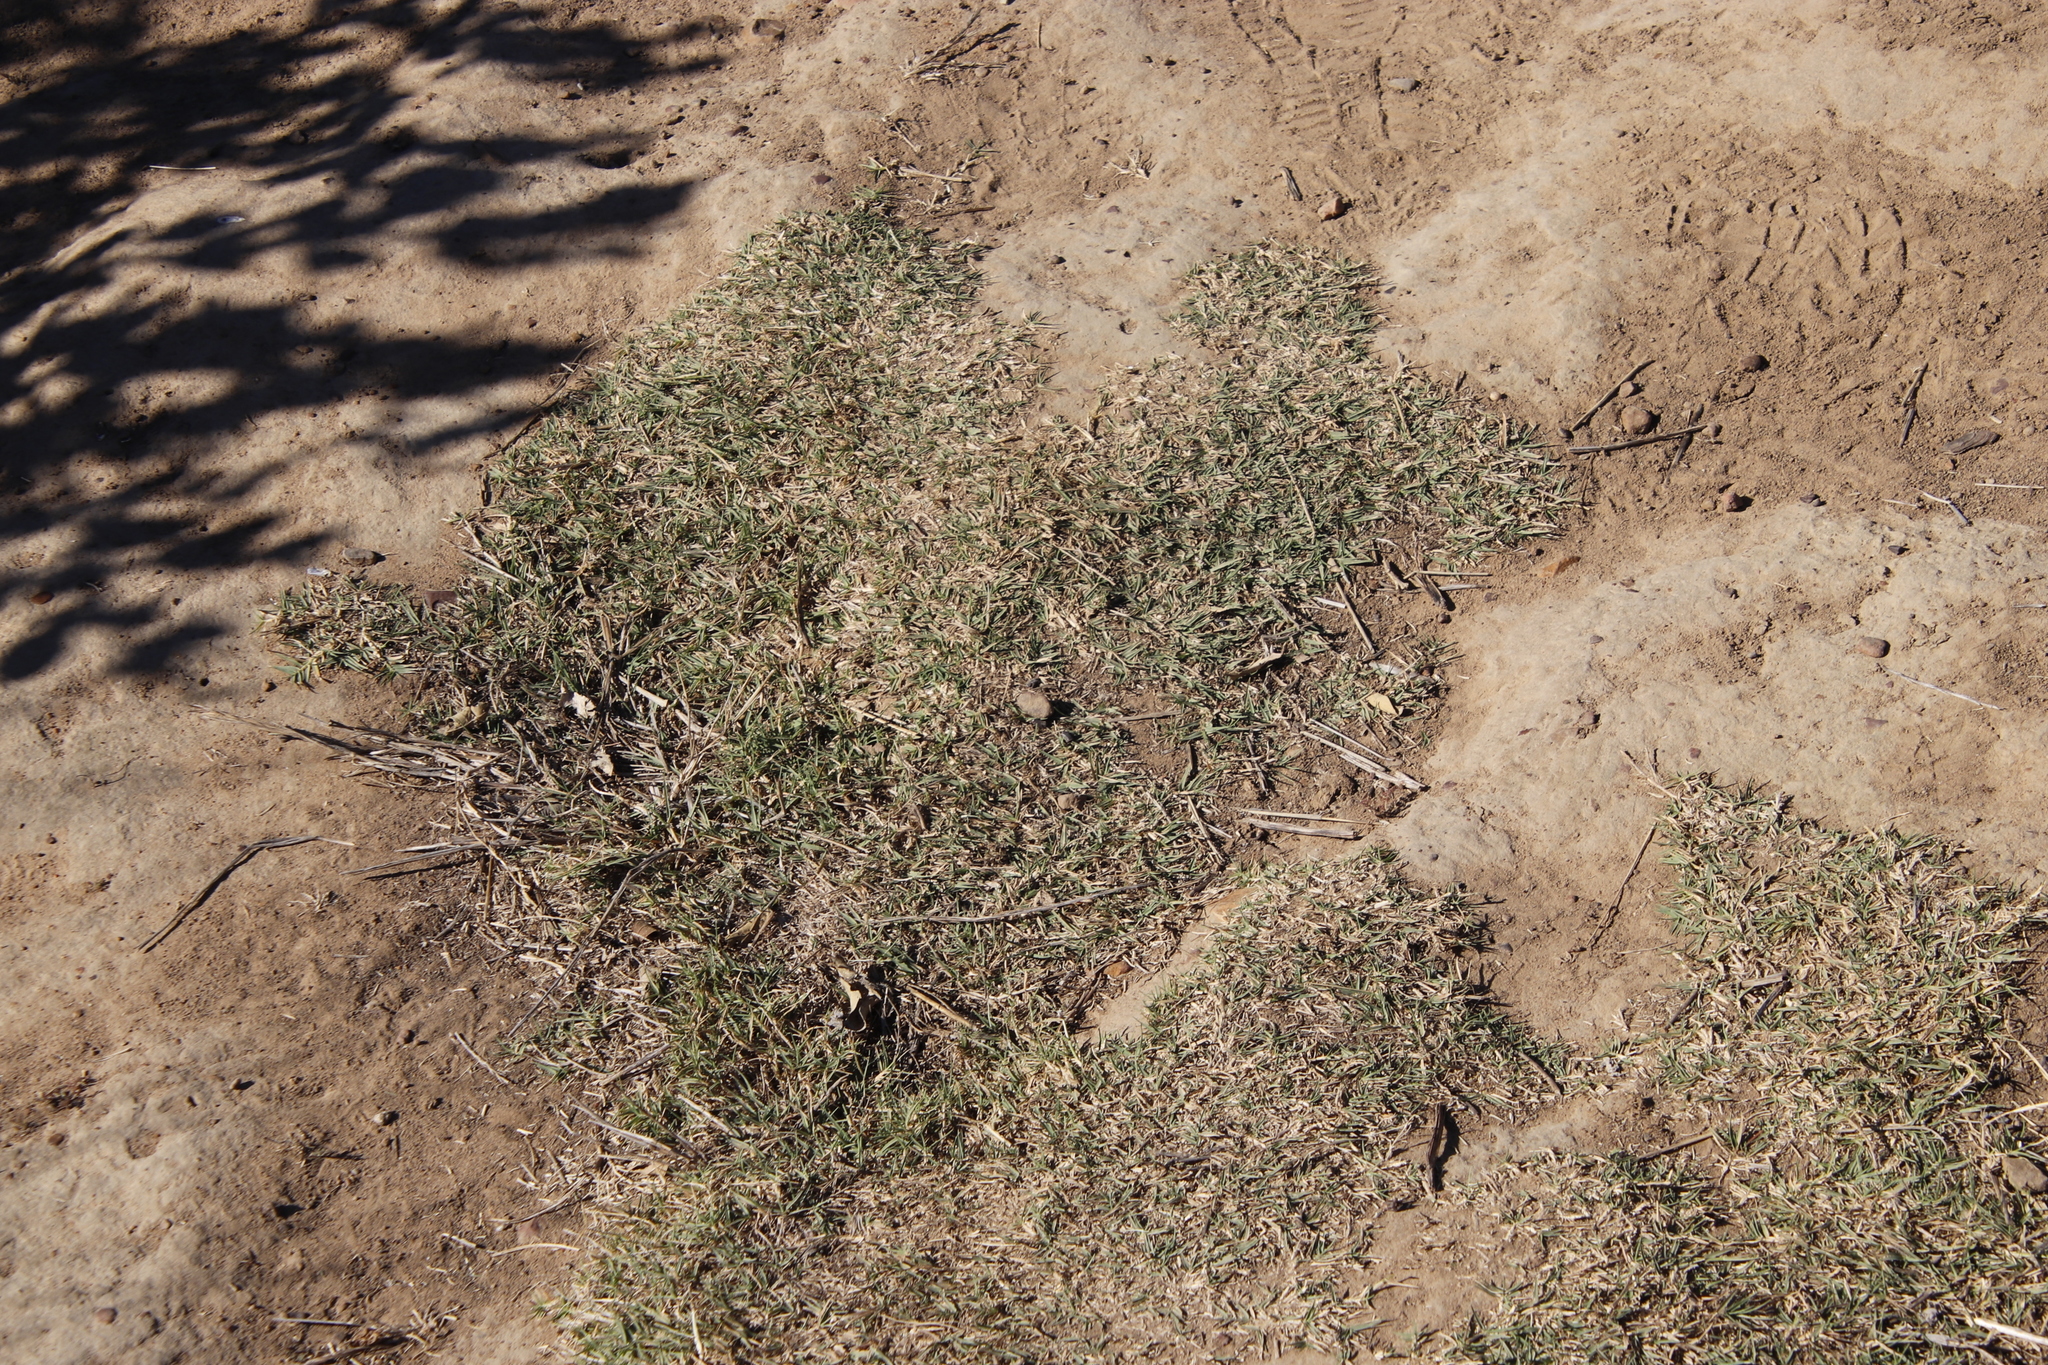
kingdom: Plantae
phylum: Tracheophyta
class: Liliopsida
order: Poales
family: Poaceae
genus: Cynodon
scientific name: Cynodon dactylon
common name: Bermuda grass
